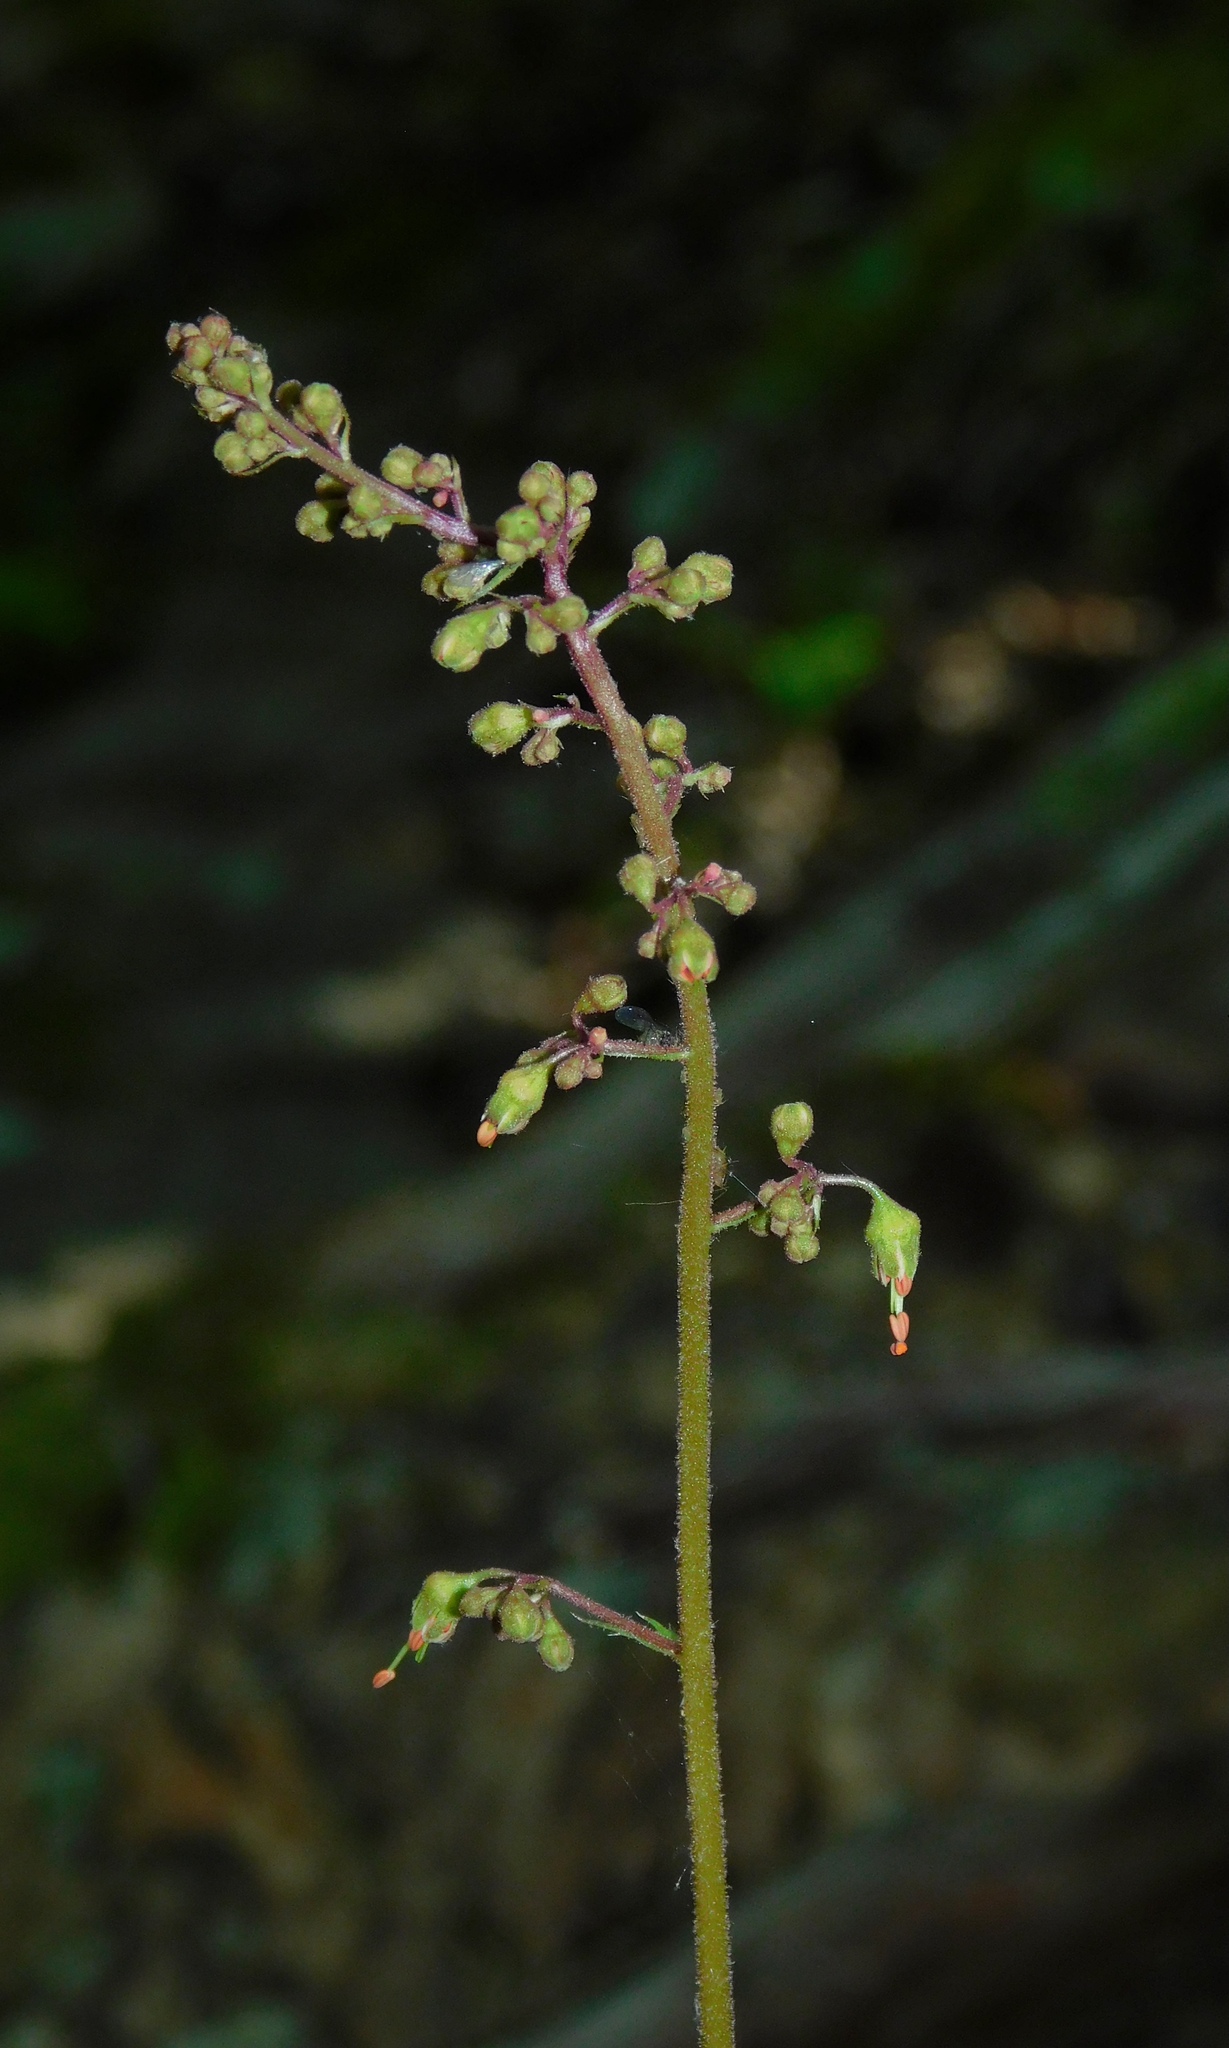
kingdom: Plantae
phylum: Tracheophyta
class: Magnoliopsida
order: Saxifragales
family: Saxifragaceae
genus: Heuchera
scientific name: Heuchera americana
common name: Alumroot
